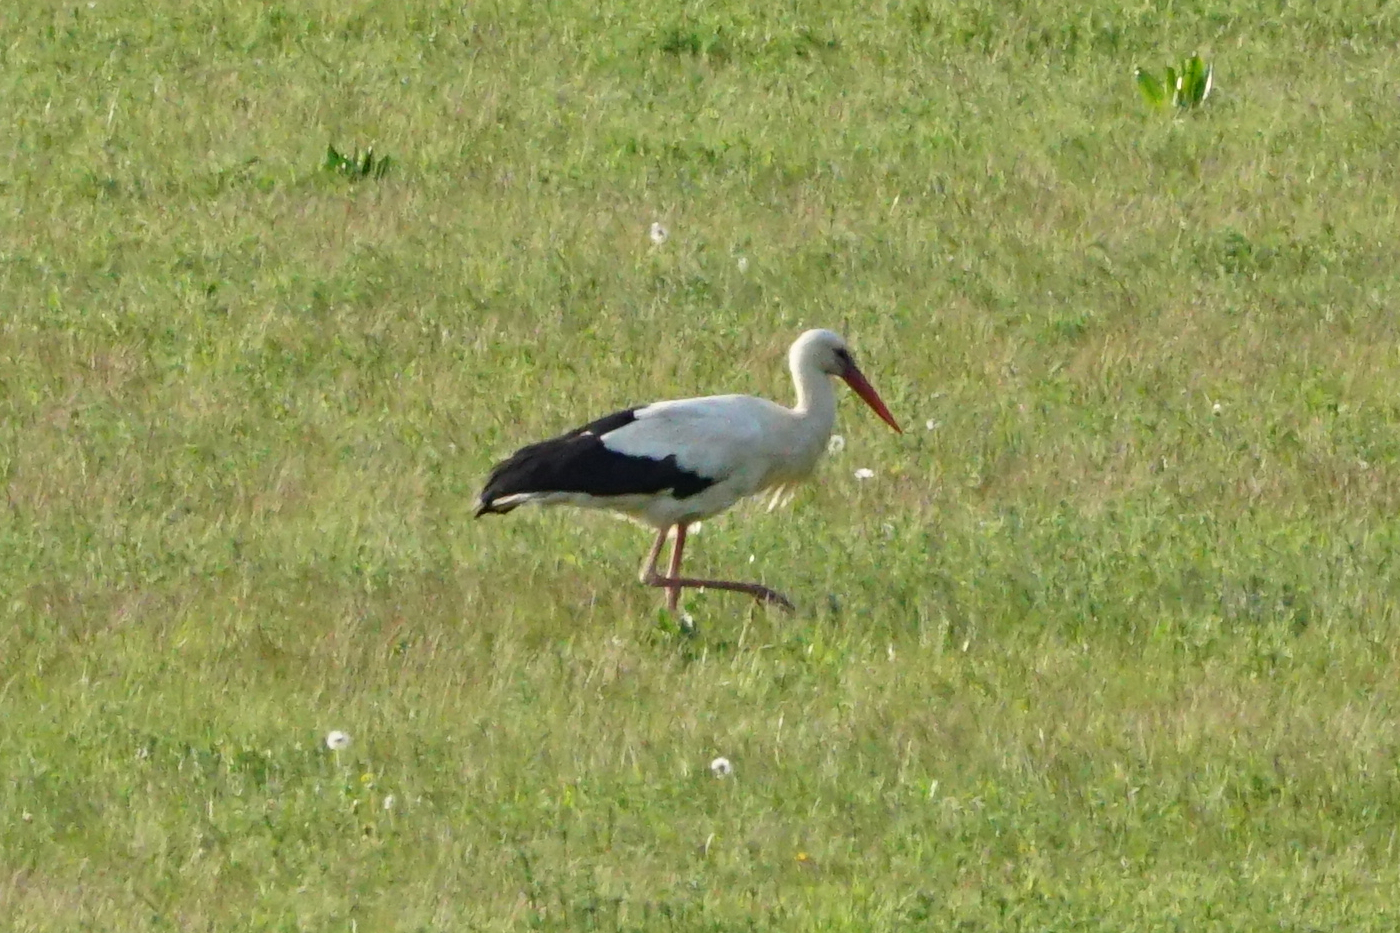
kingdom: Animalia
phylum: Chordata
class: Aves
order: Ciconiiformes
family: Ciconiidae
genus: Ciconia
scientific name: Ciconia ciconia
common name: White stork
